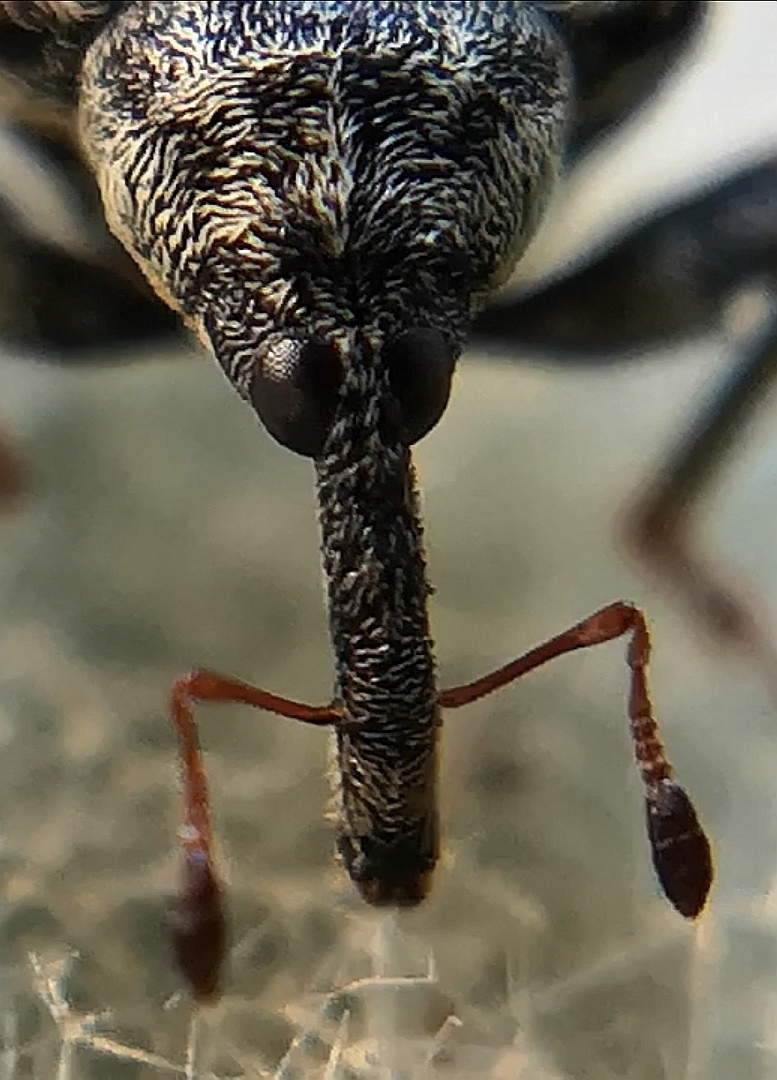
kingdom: Animalia
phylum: Arthropoda
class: Insecta
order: Coleoptera
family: Curculionidae
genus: Cionus
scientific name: Cionus thapsus
